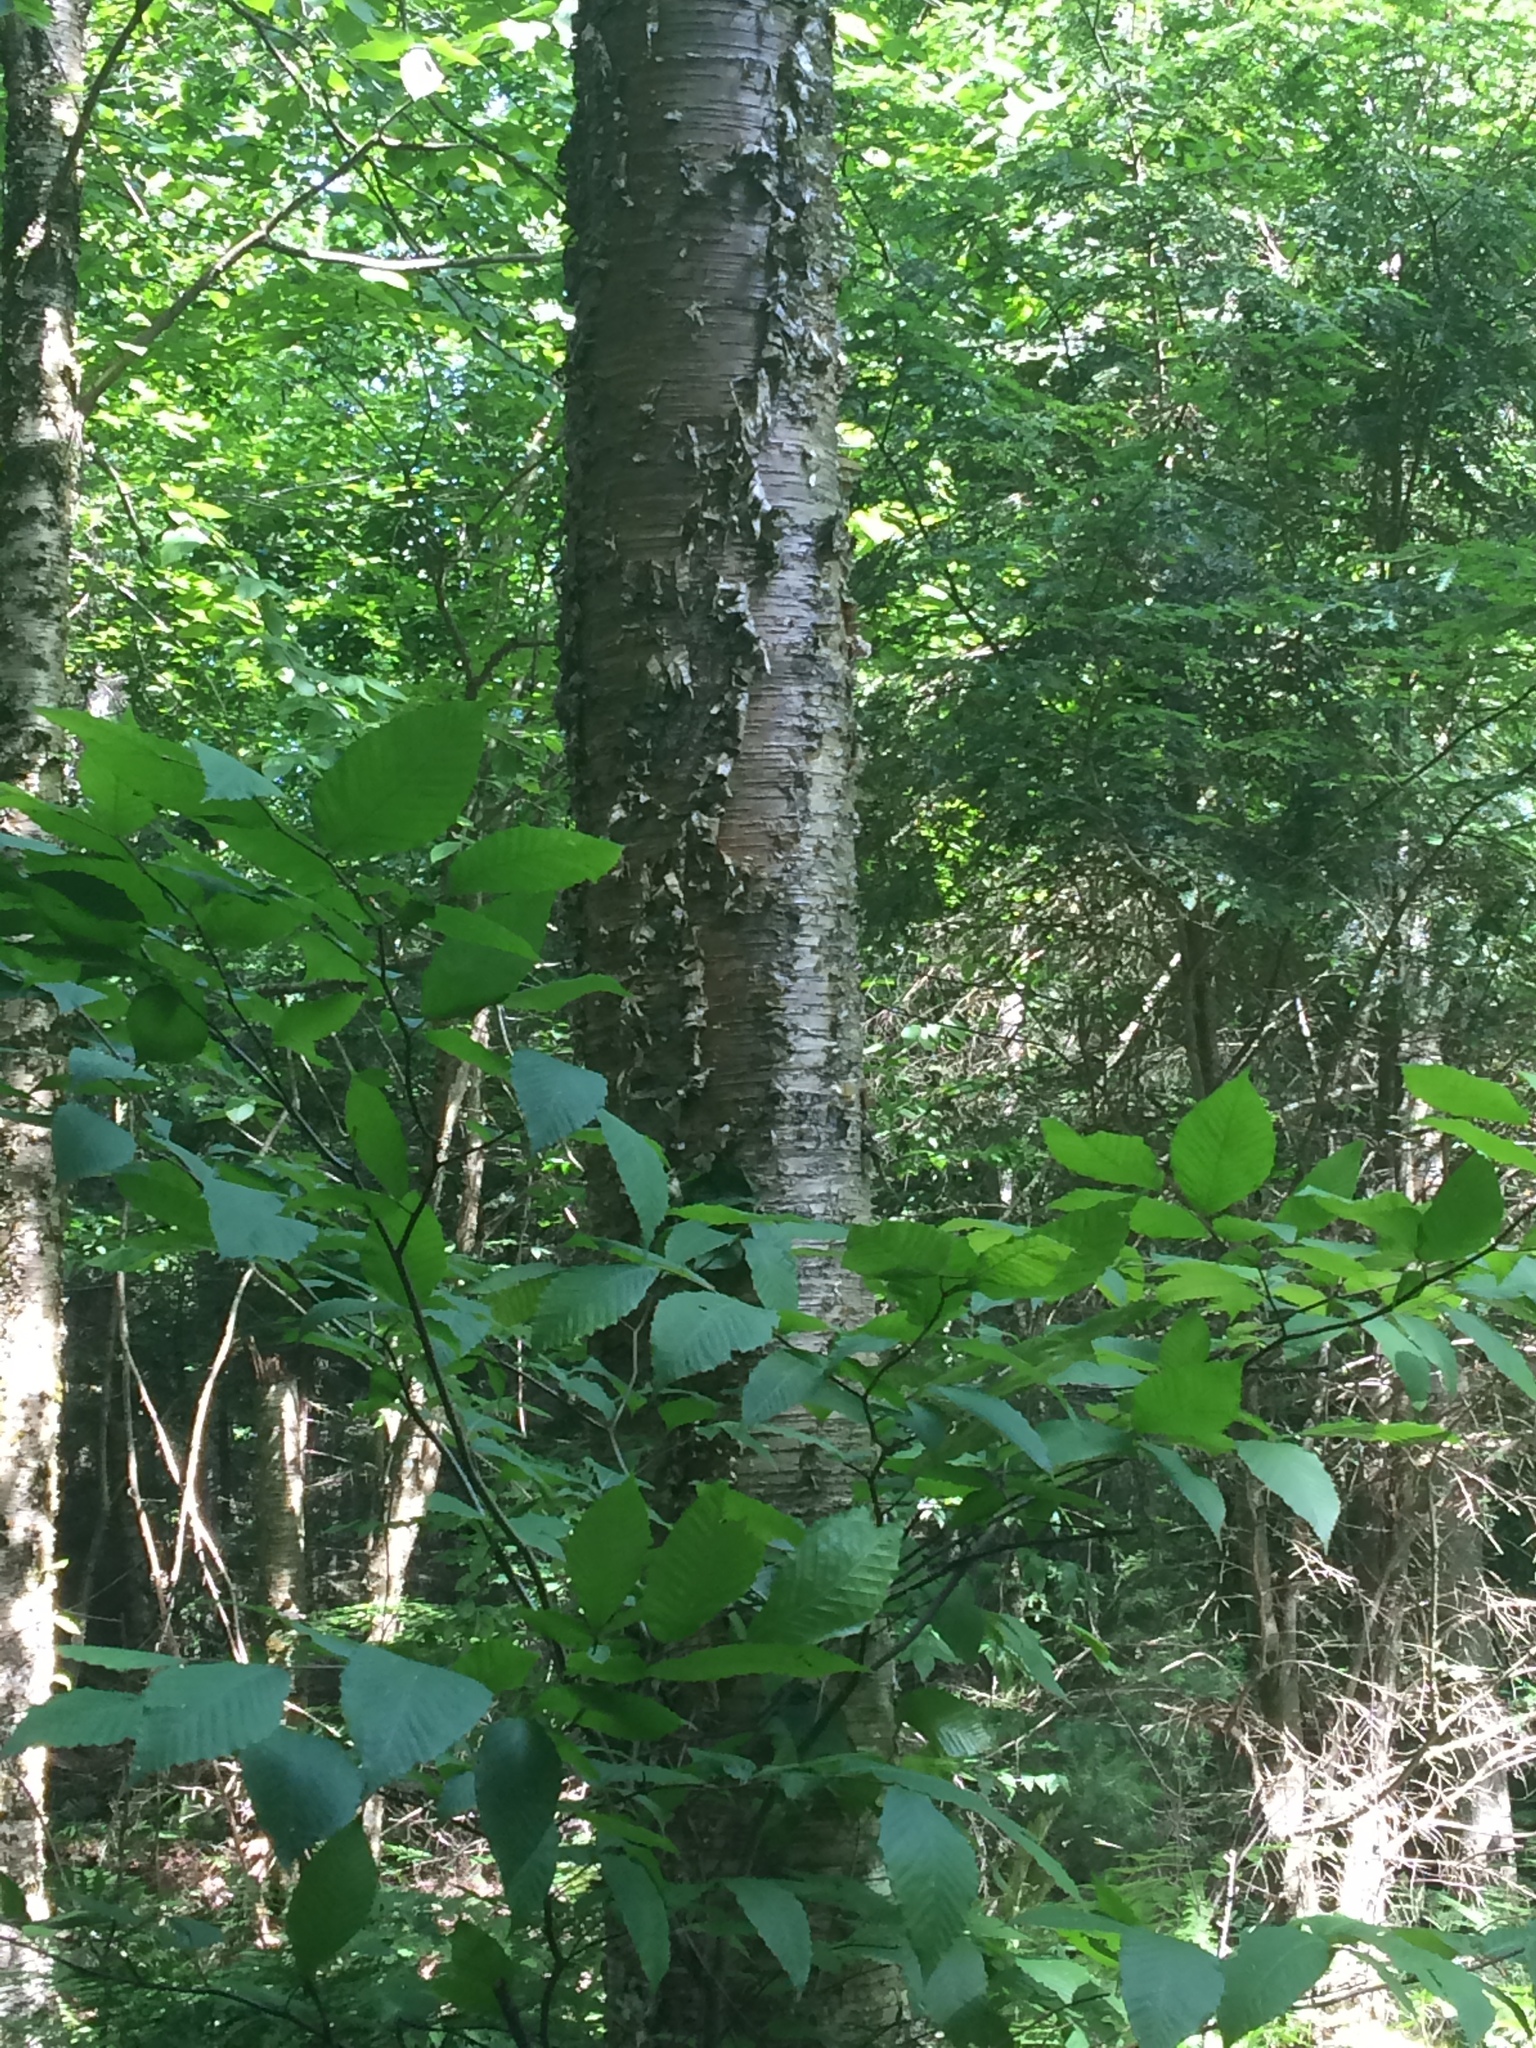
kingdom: Plantae
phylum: Tracheophyta
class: Magnoliopsida
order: Fagales
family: Betulaceae
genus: Betula
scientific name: Betula alleghaniensis
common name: Yellow birch
